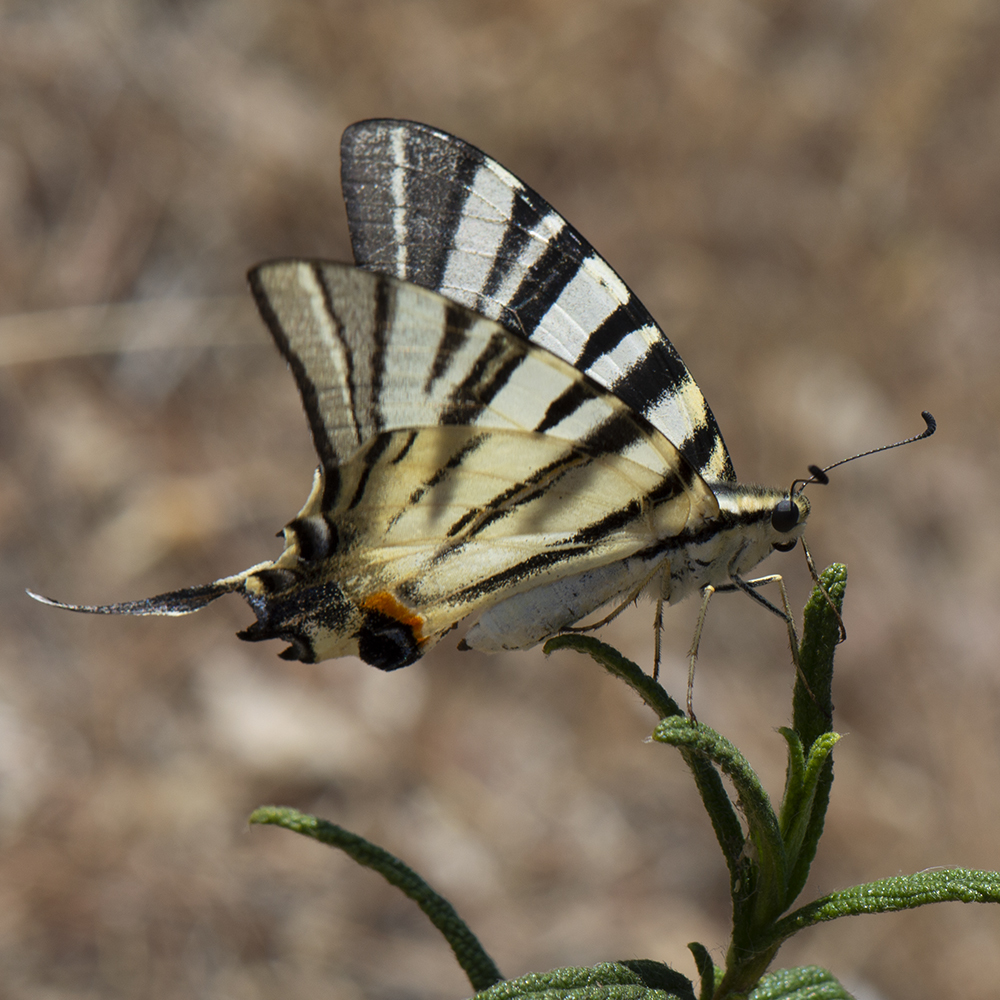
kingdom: Animalia
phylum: Arthropoda
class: Insecta
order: Lepidoptera
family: Papilionidae
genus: Iphiclides
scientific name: Iphiclides podalirius
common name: Scarce swallowtail
